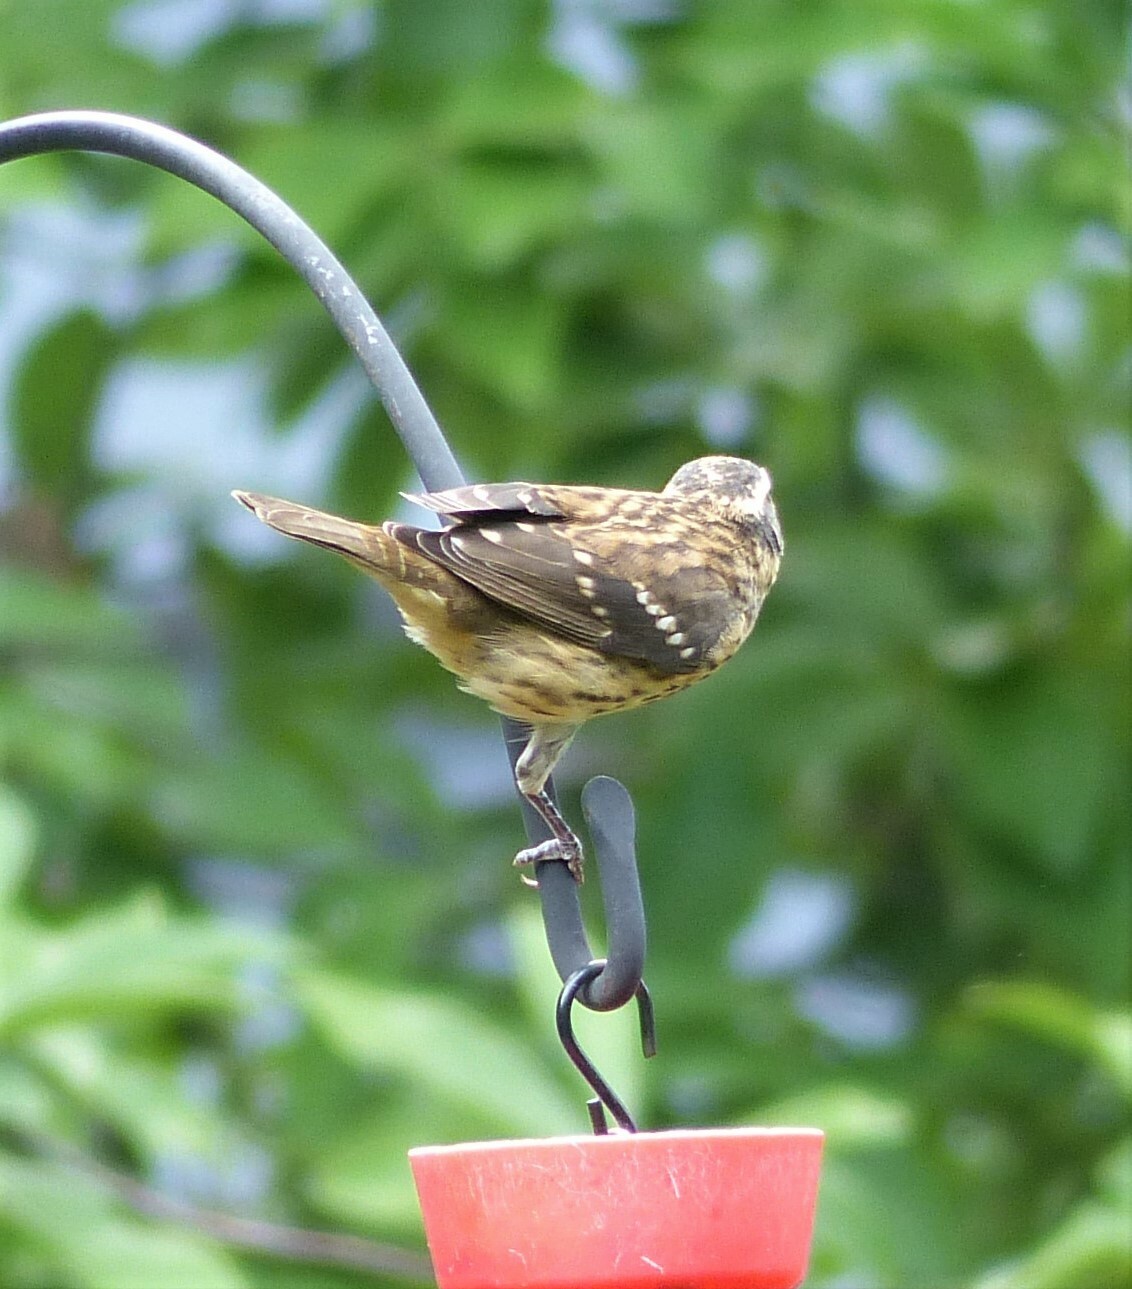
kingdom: Animalia
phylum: Chordata
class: Aves
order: Passeriformes
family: Cardinalidae
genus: Pheucticus
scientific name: Pheucticus ludovicianus
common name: Rose-breasted grosbeak
